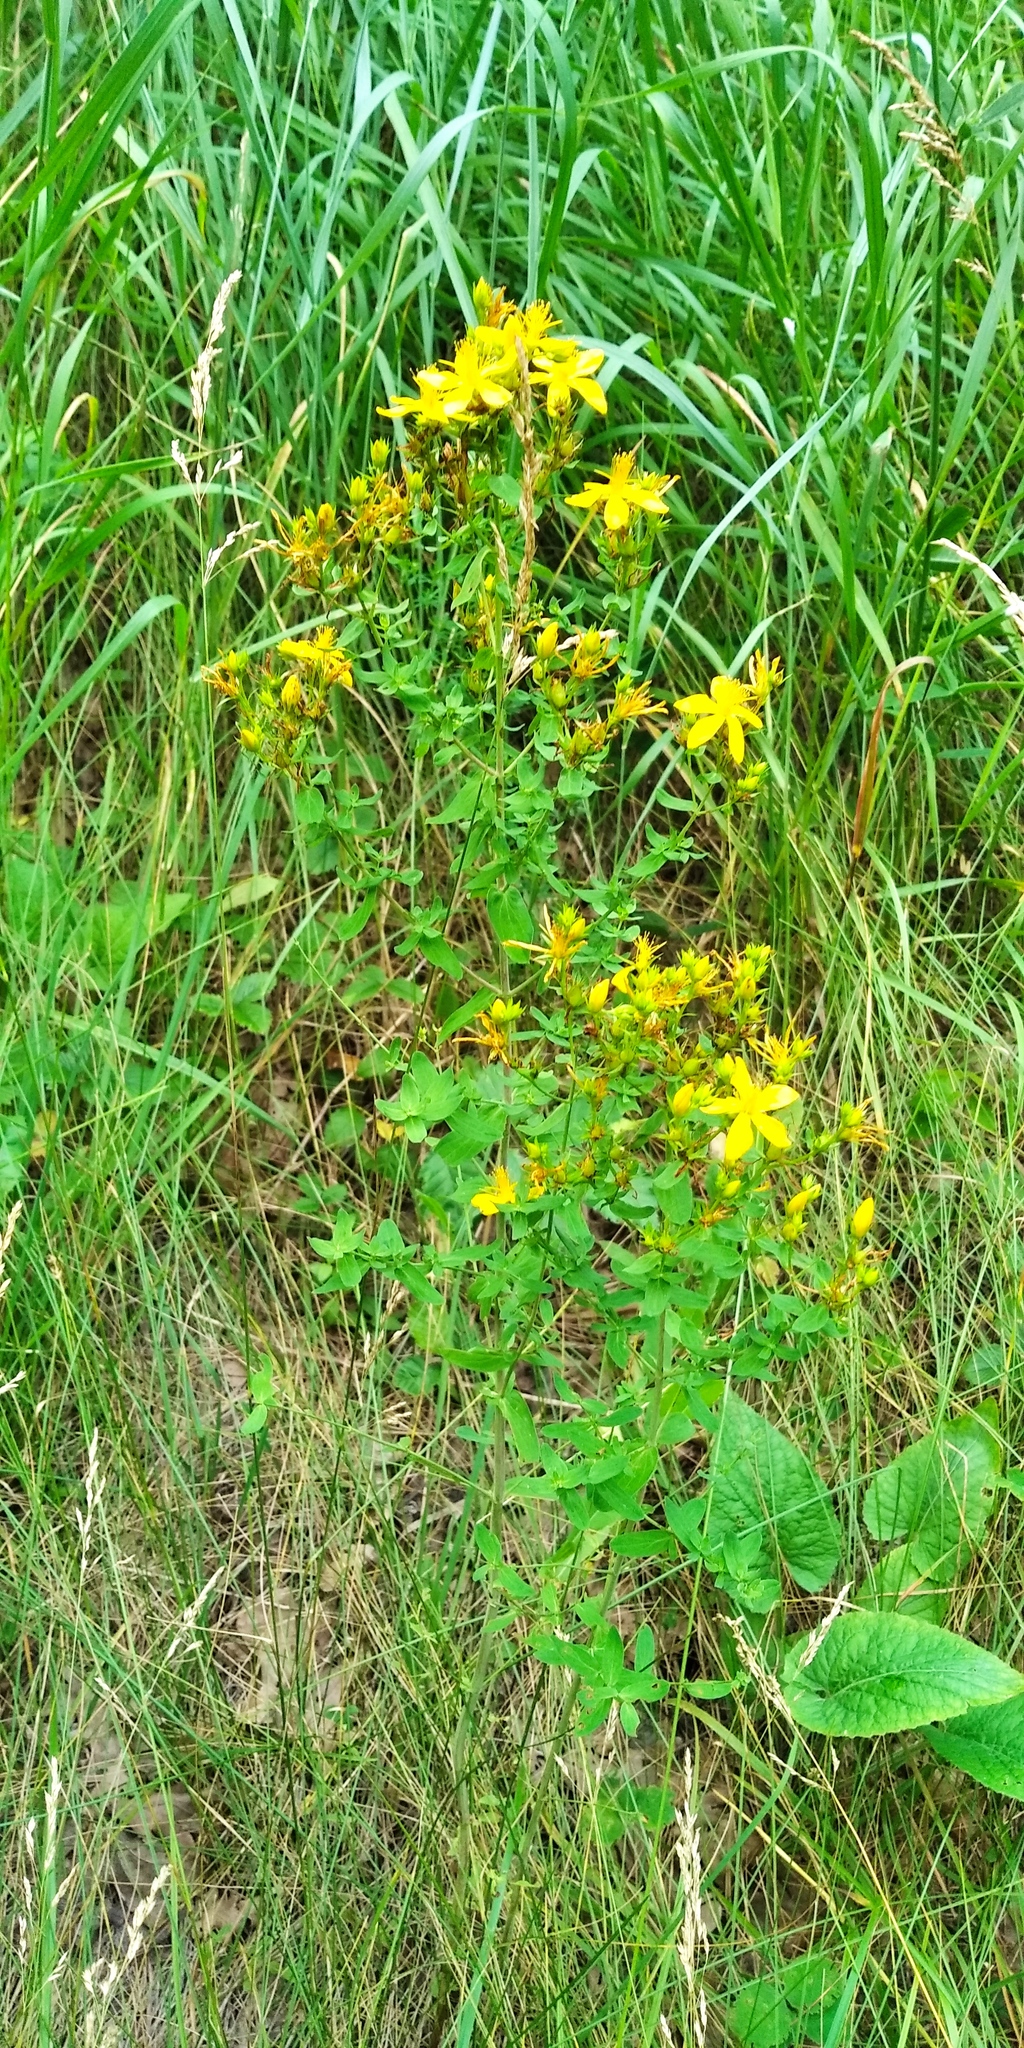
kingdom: Plantae
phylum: Tracheophyta
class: Magnoliopsida
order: Malpighiales
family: Hypericaceae
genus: Hypericum
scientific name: Hypericum perforatum
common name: Common st. johnswort
